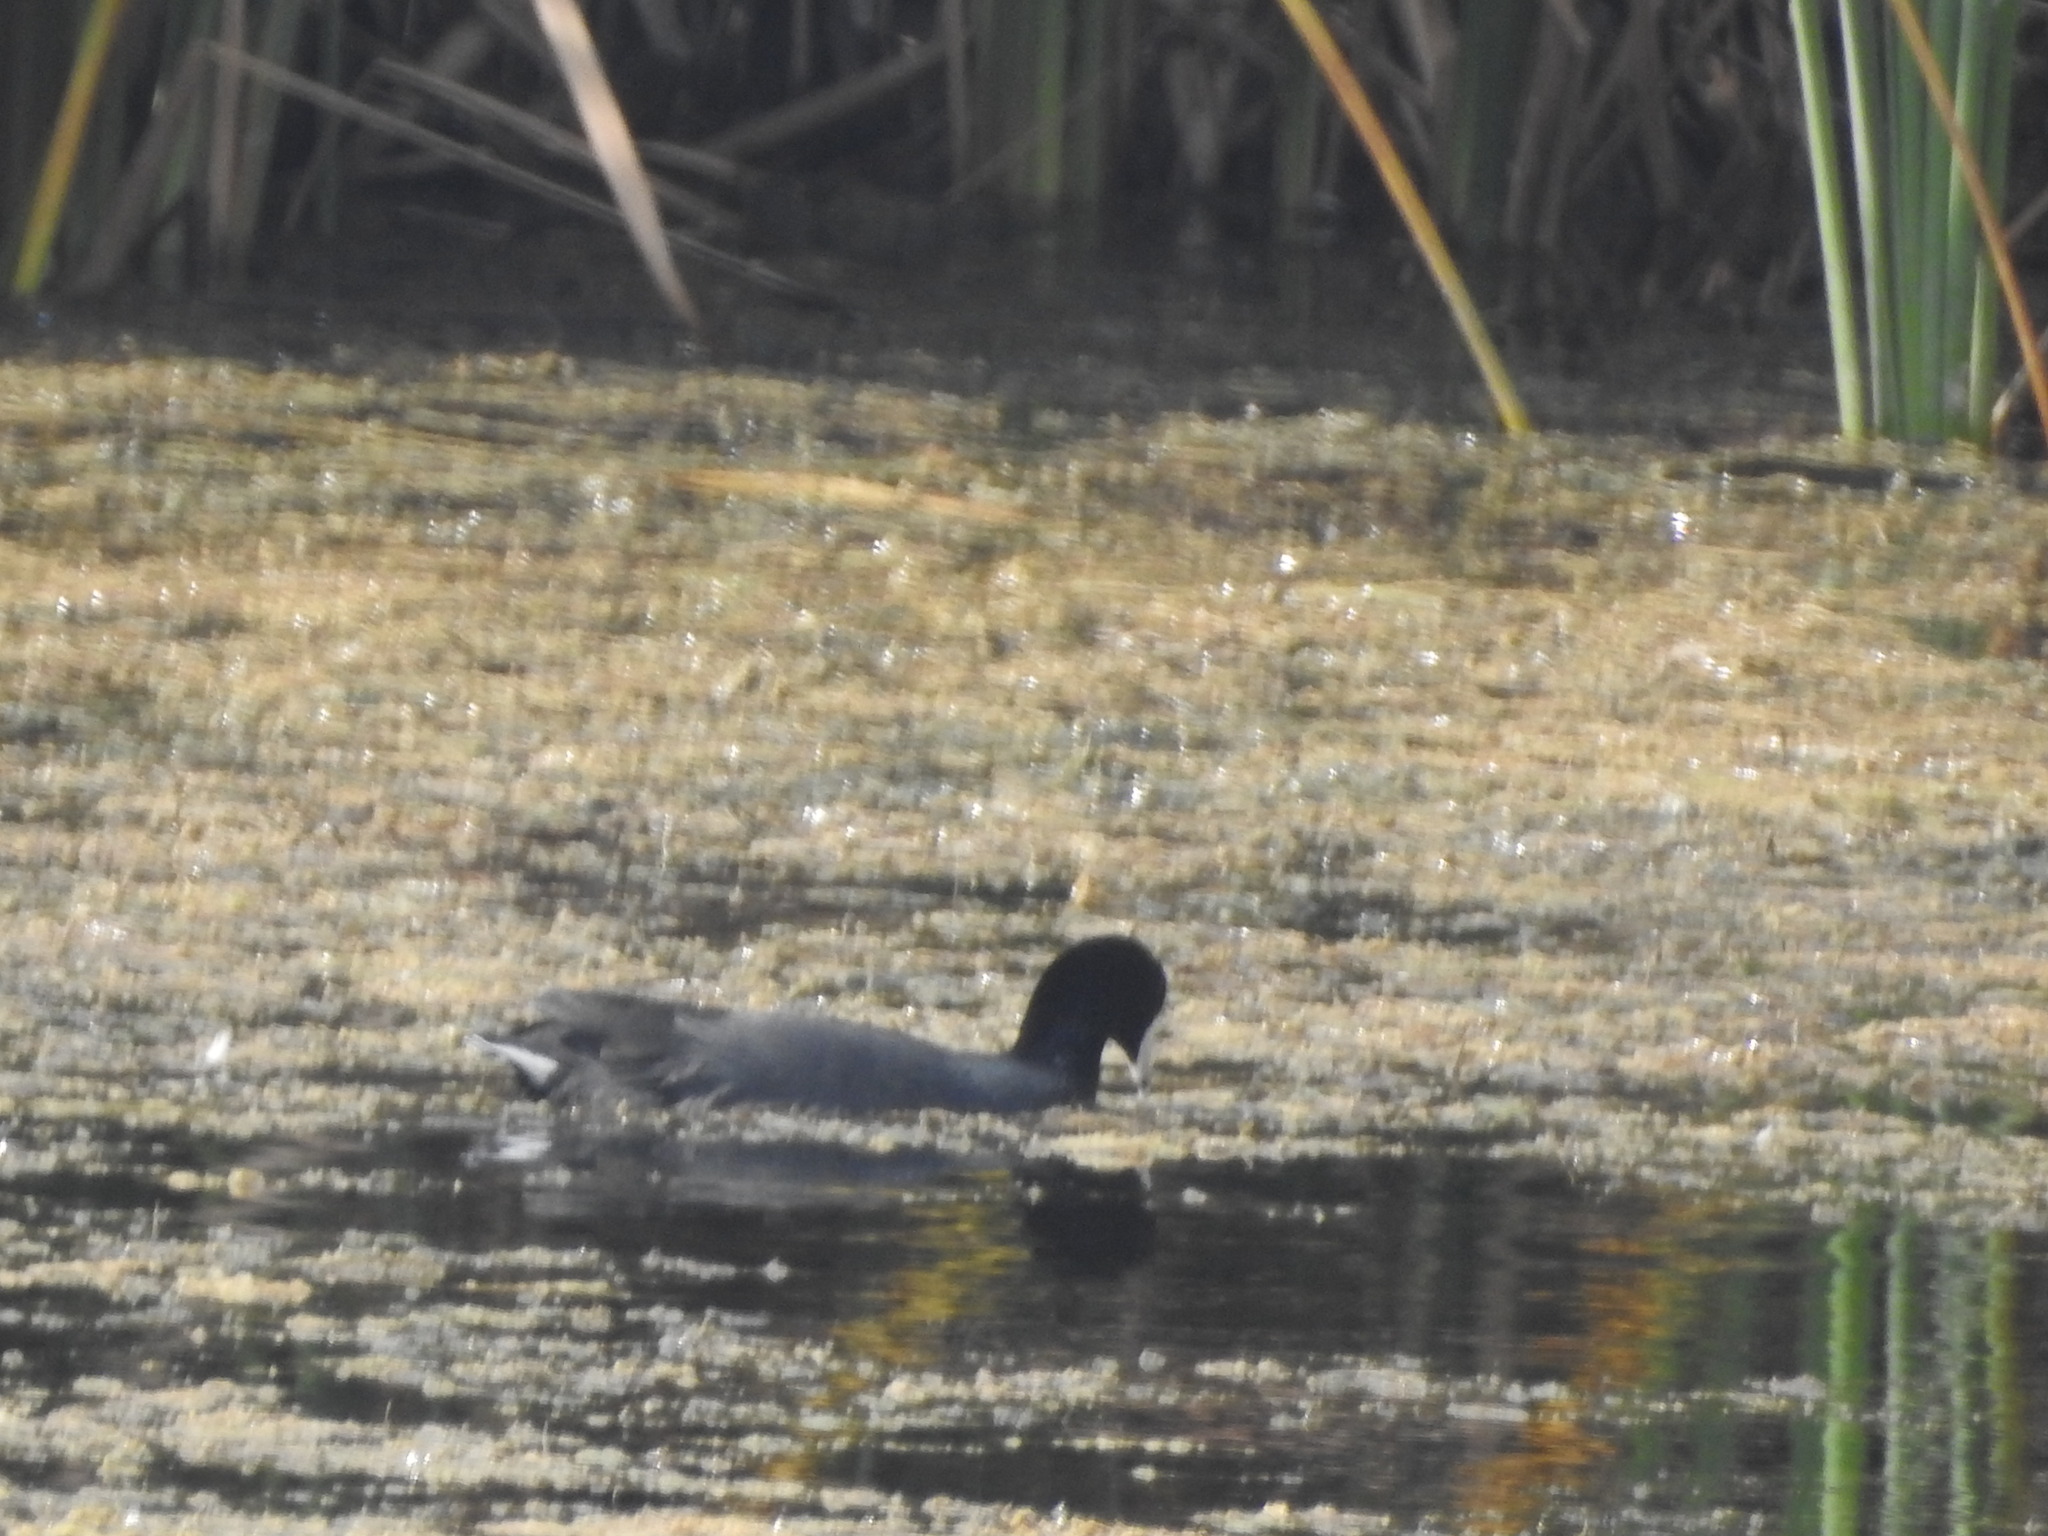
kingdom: Animalia
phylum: Chordata
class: Aves
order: Gruiformes
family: Rallidae
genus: Fulica
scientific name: Fulica americana
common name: American coot
